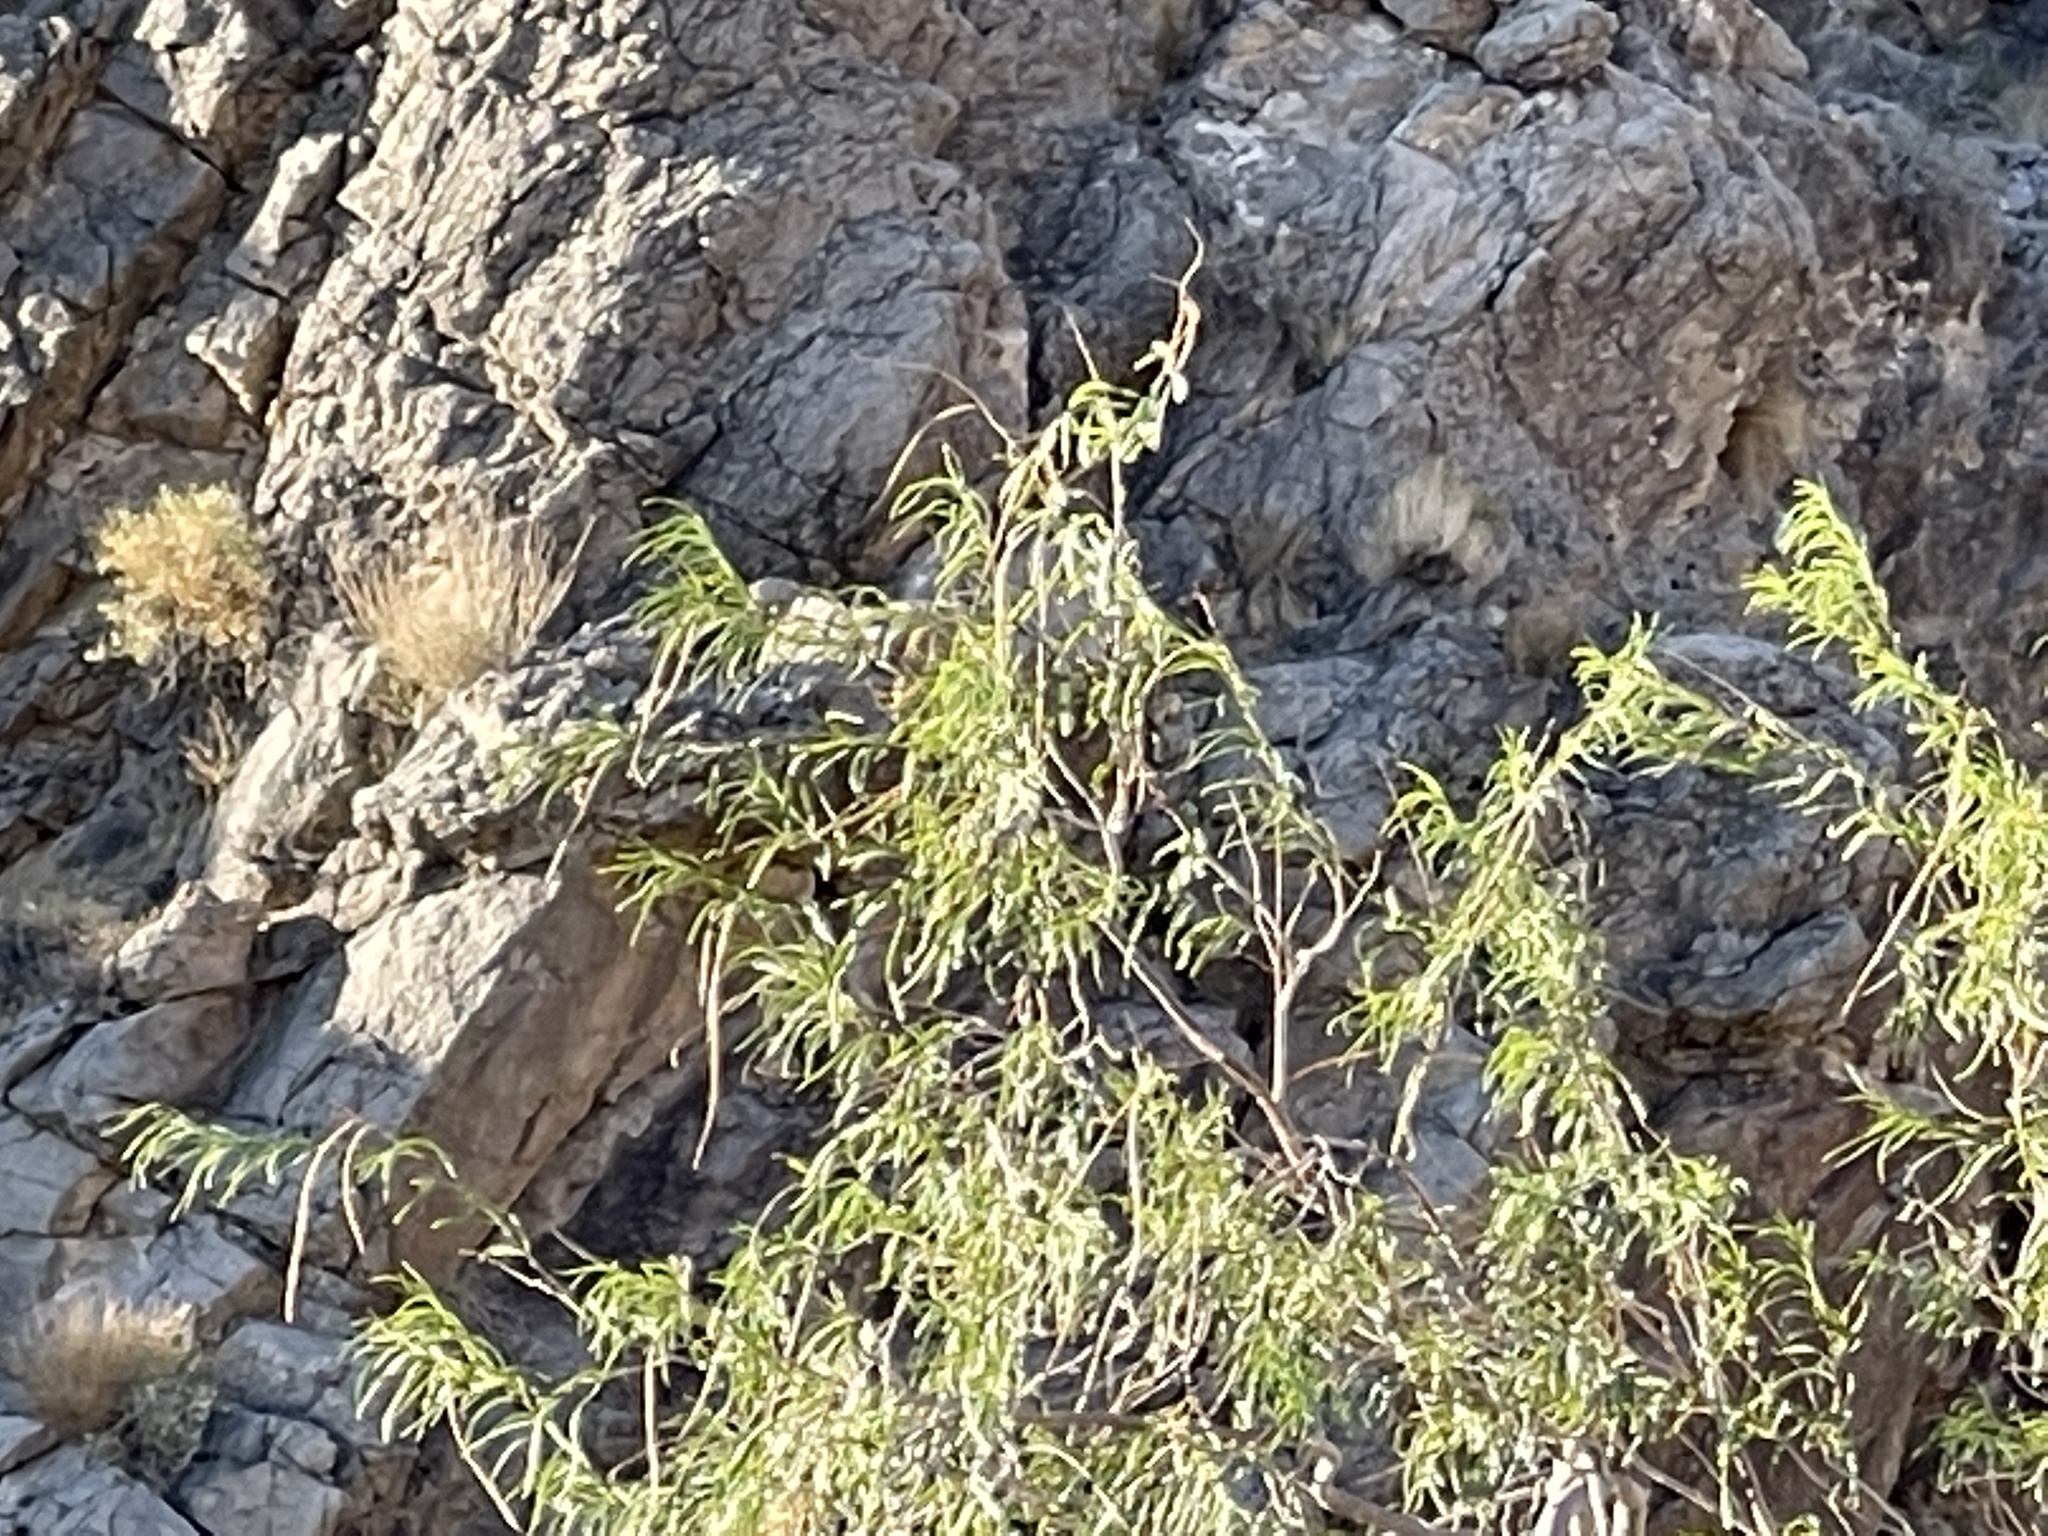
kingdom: Plantae
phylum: Tracheophyta
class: Magnoliopsida
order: Lamiales
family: Bignoniaceae
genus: Chilopsis
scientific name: Chilopsis linearis
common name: Desert-willow
